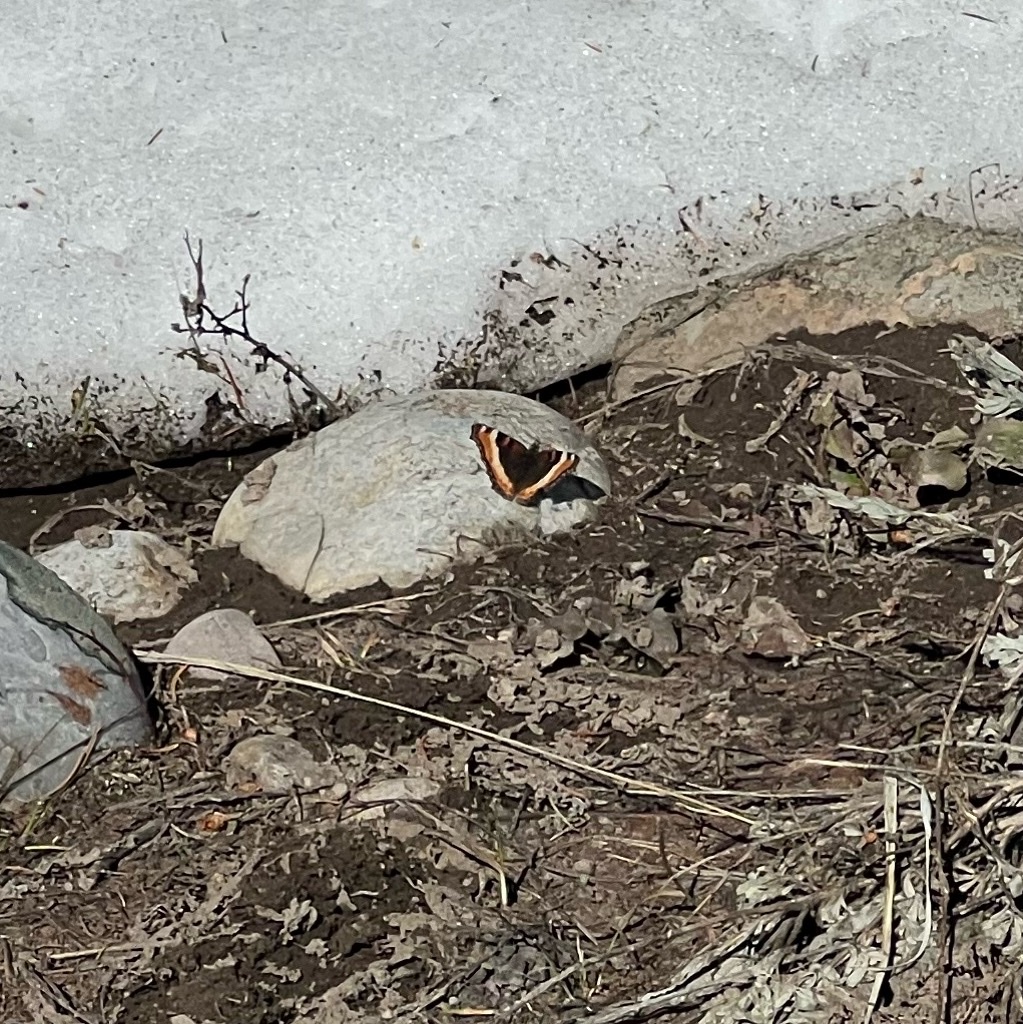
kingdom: Animalia
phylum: Arthropoda
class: Insecta
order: Lepidoptera
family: Nymphalidae
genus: Aglais
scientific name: Aglais milberti
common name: Milbert's tortoiseshell
